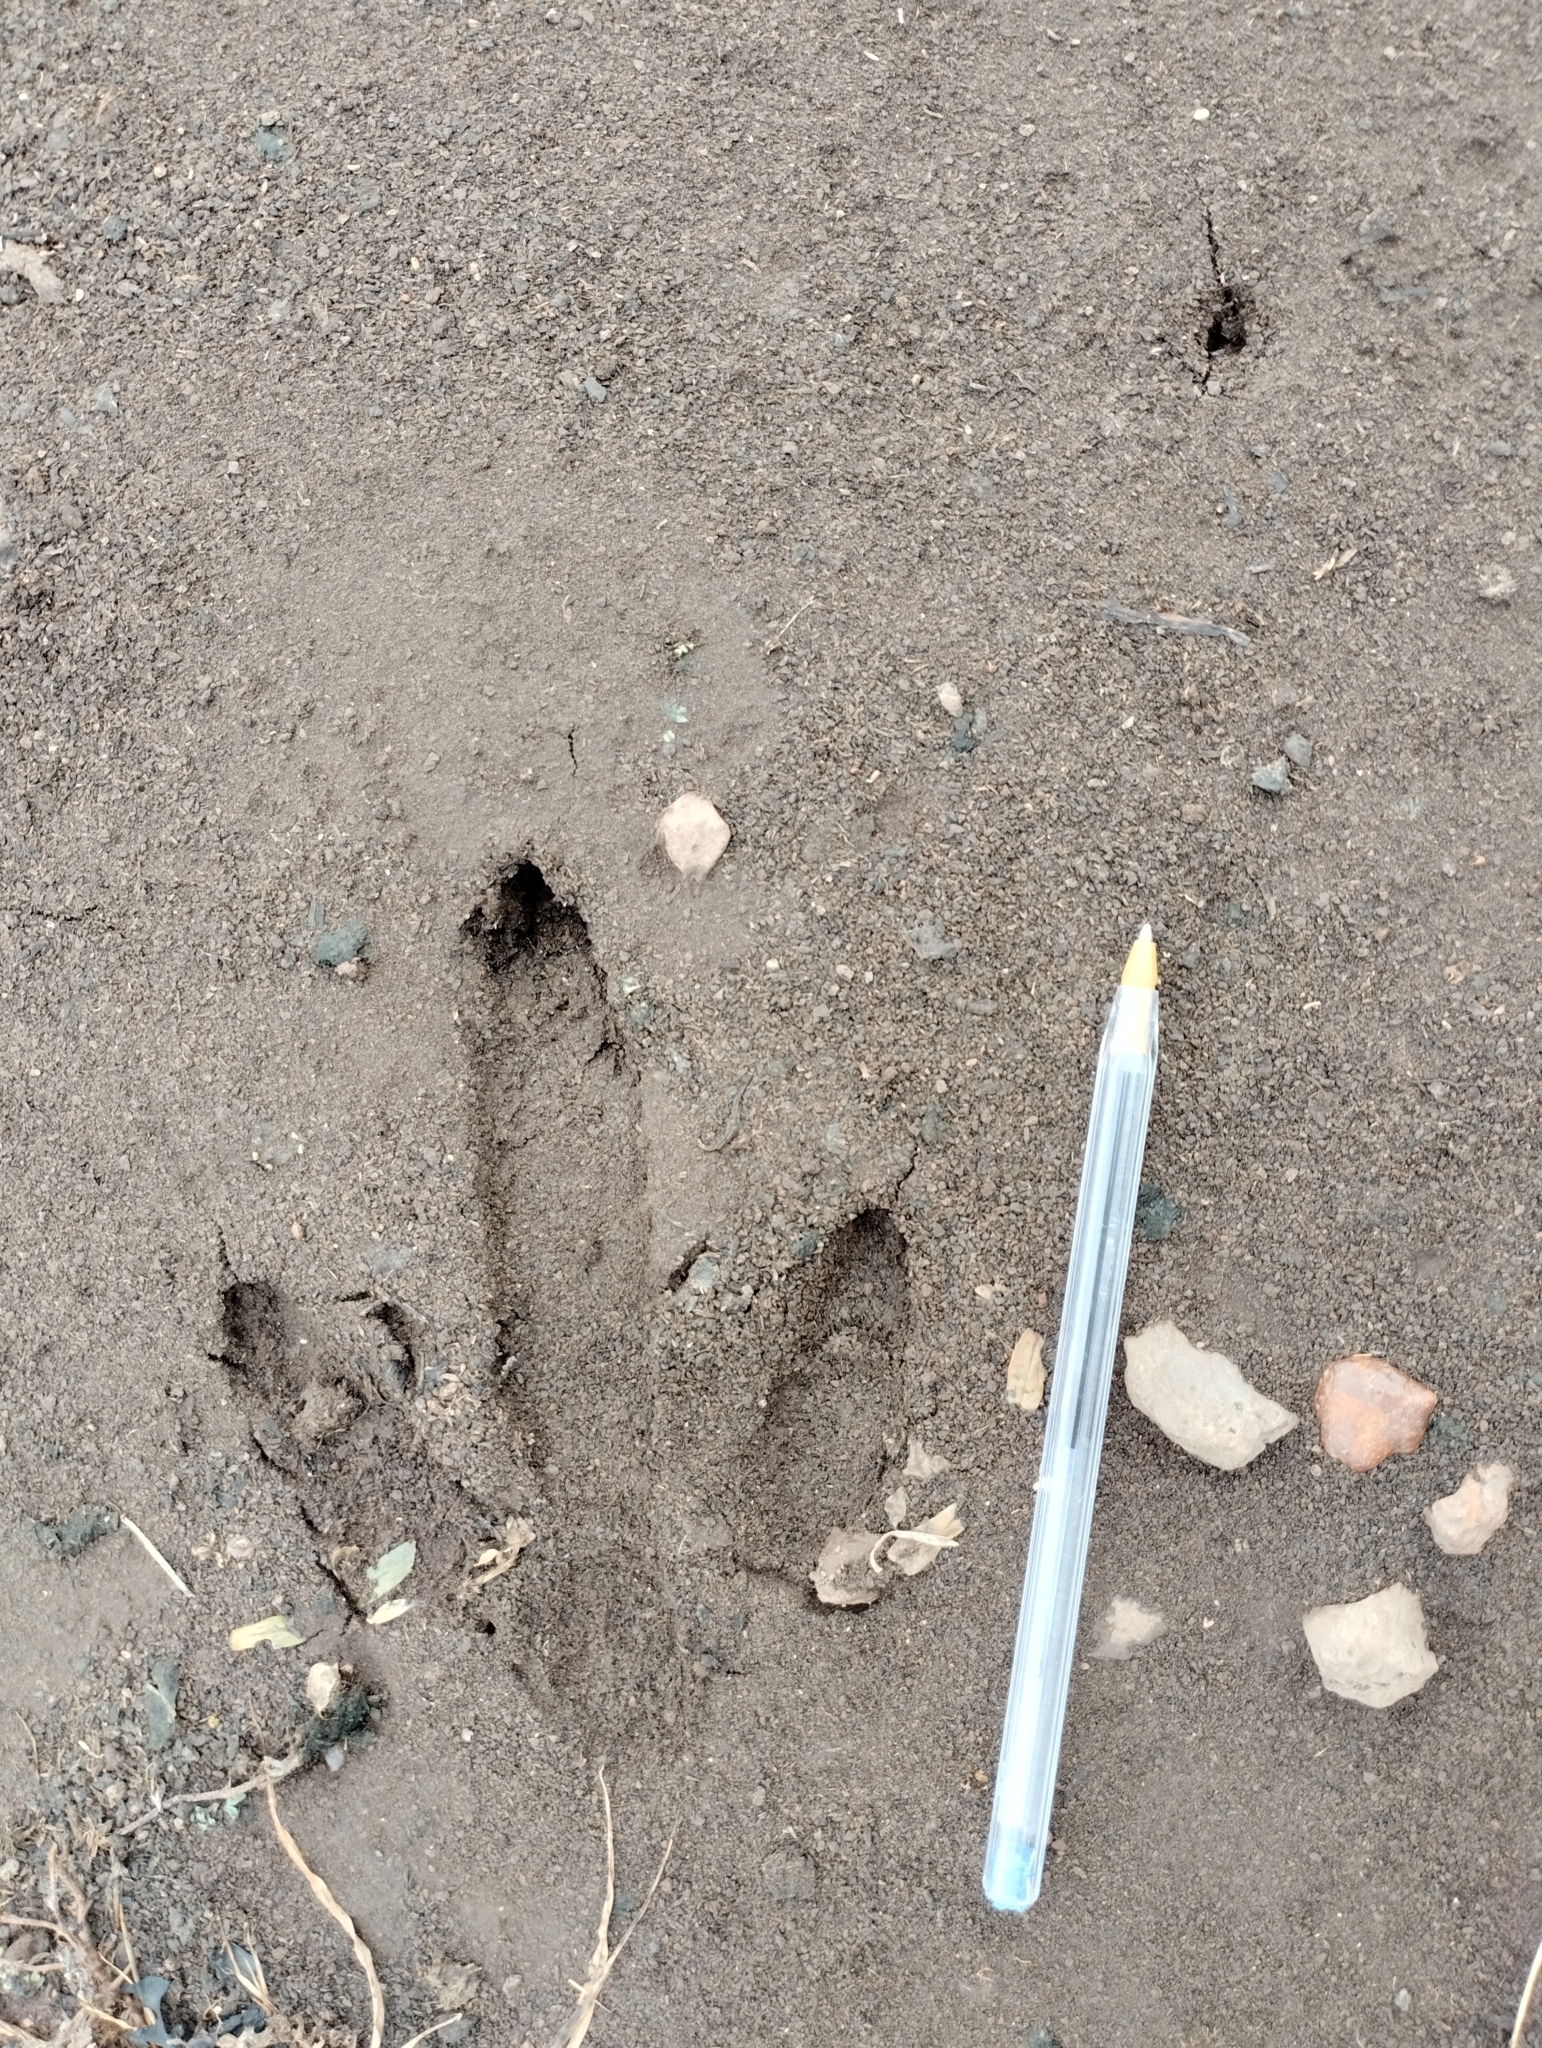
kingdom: Animalia
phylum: Chordata
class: Aves
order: Rheiformes
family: Rheidae
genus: Rhea
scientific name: Rhea americana
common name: Greater rhea
